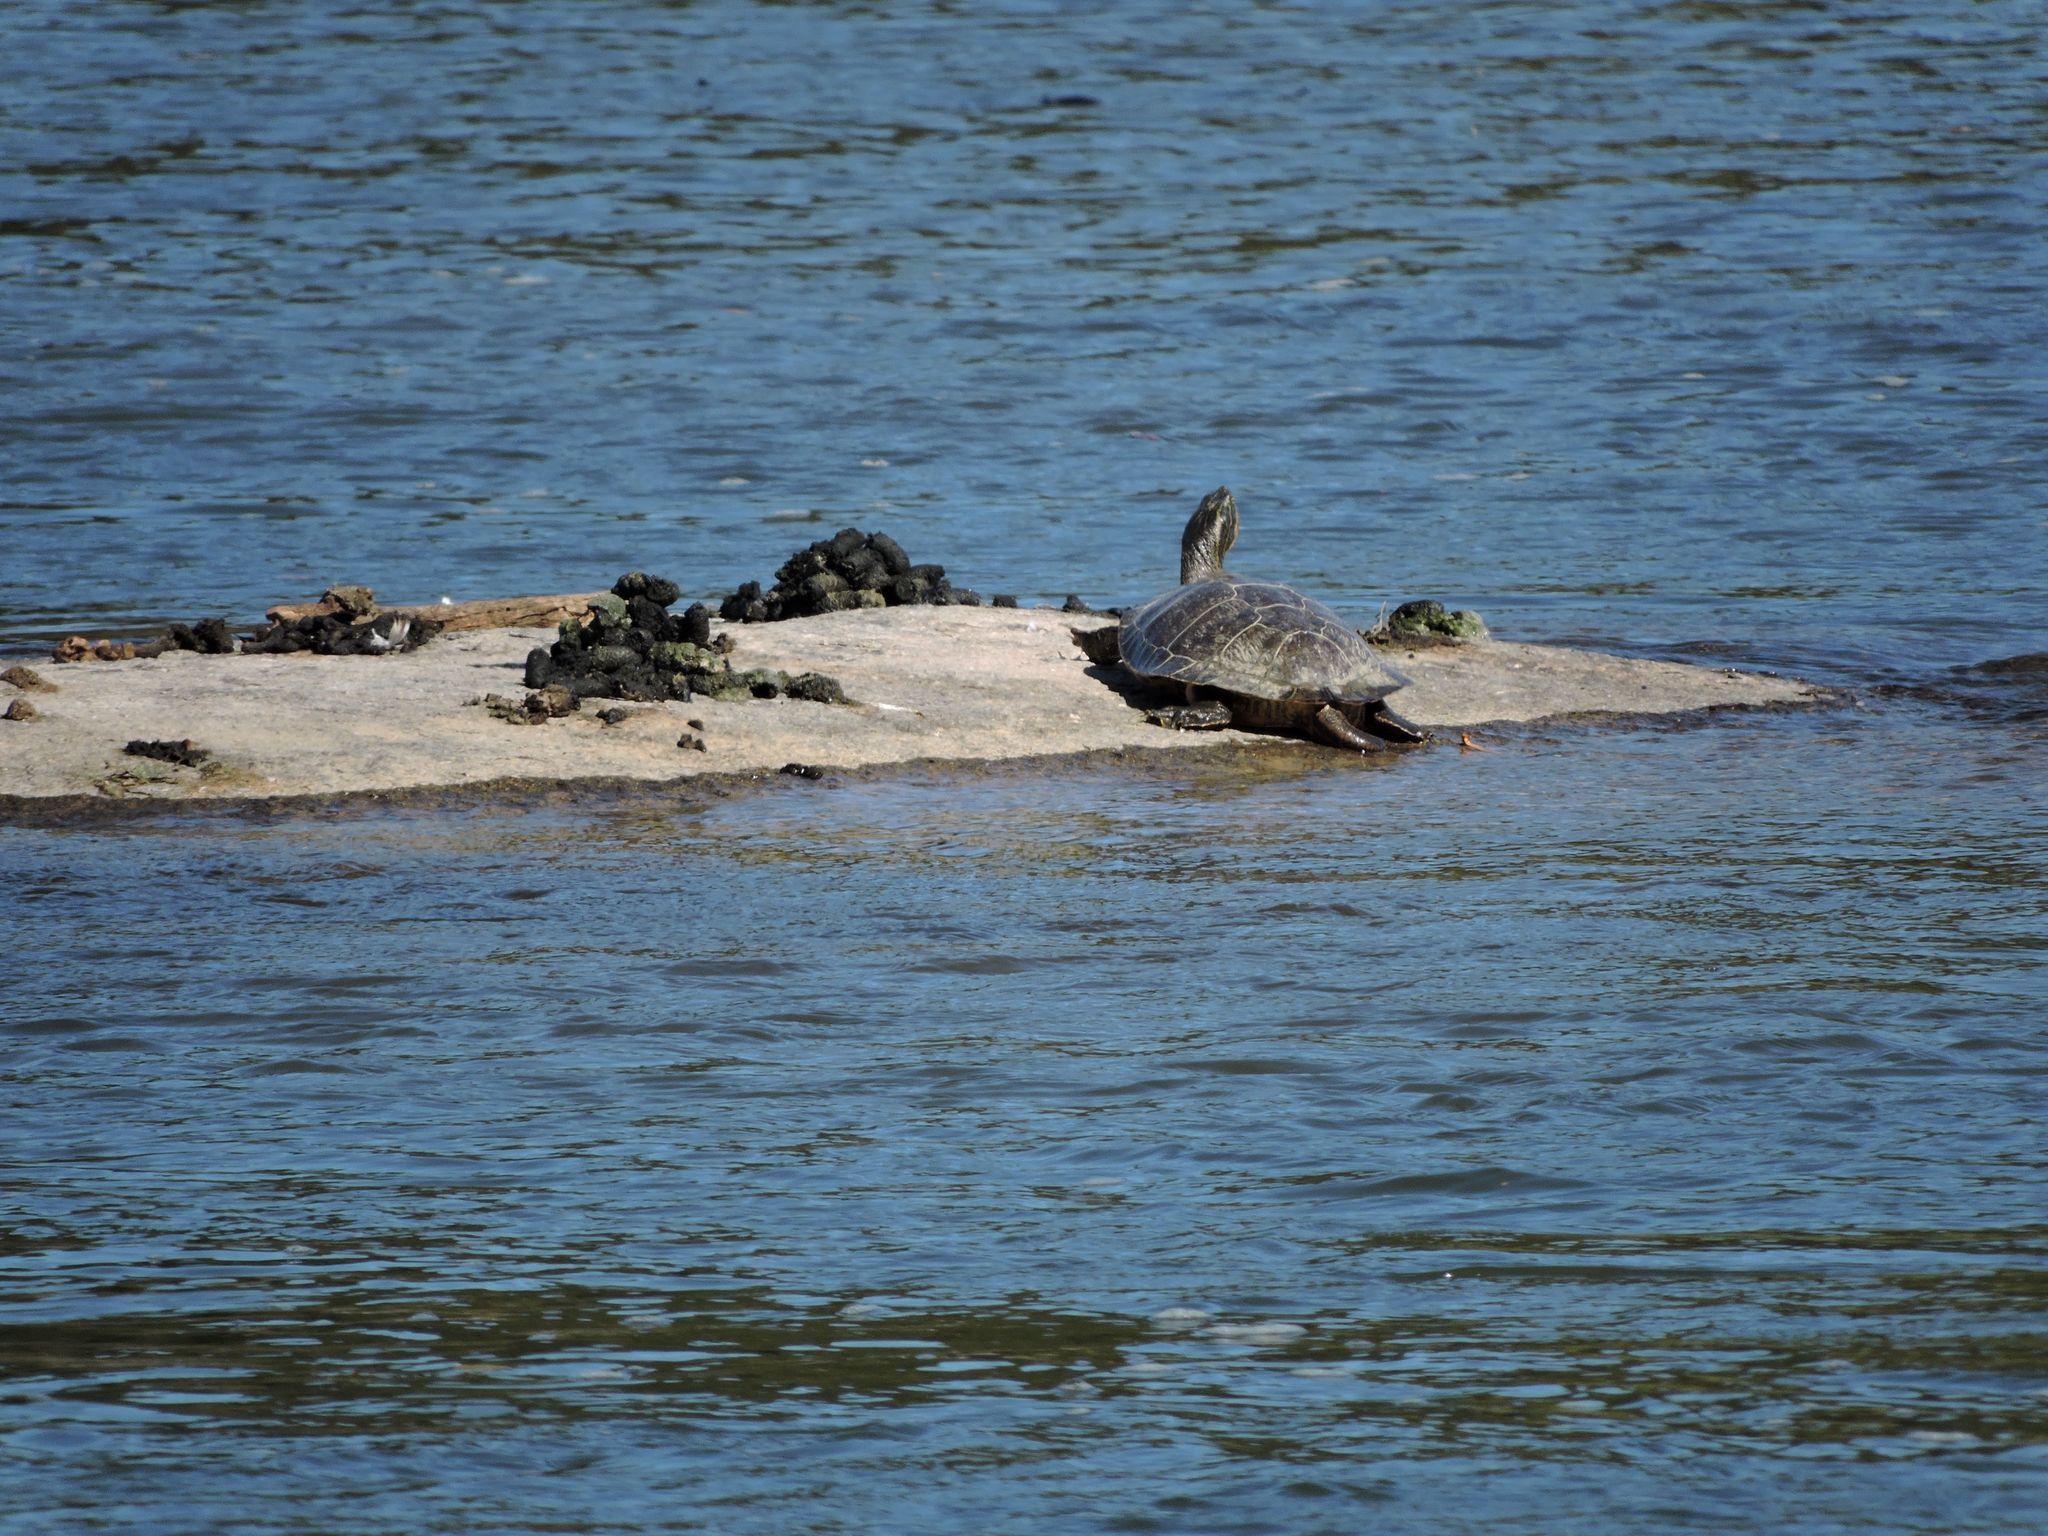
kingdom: Animalia
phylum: Chordata
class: Aves
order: Anseriformes
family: Anatidae
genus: Branta
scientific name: Branta canadensis
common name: Canada goose
